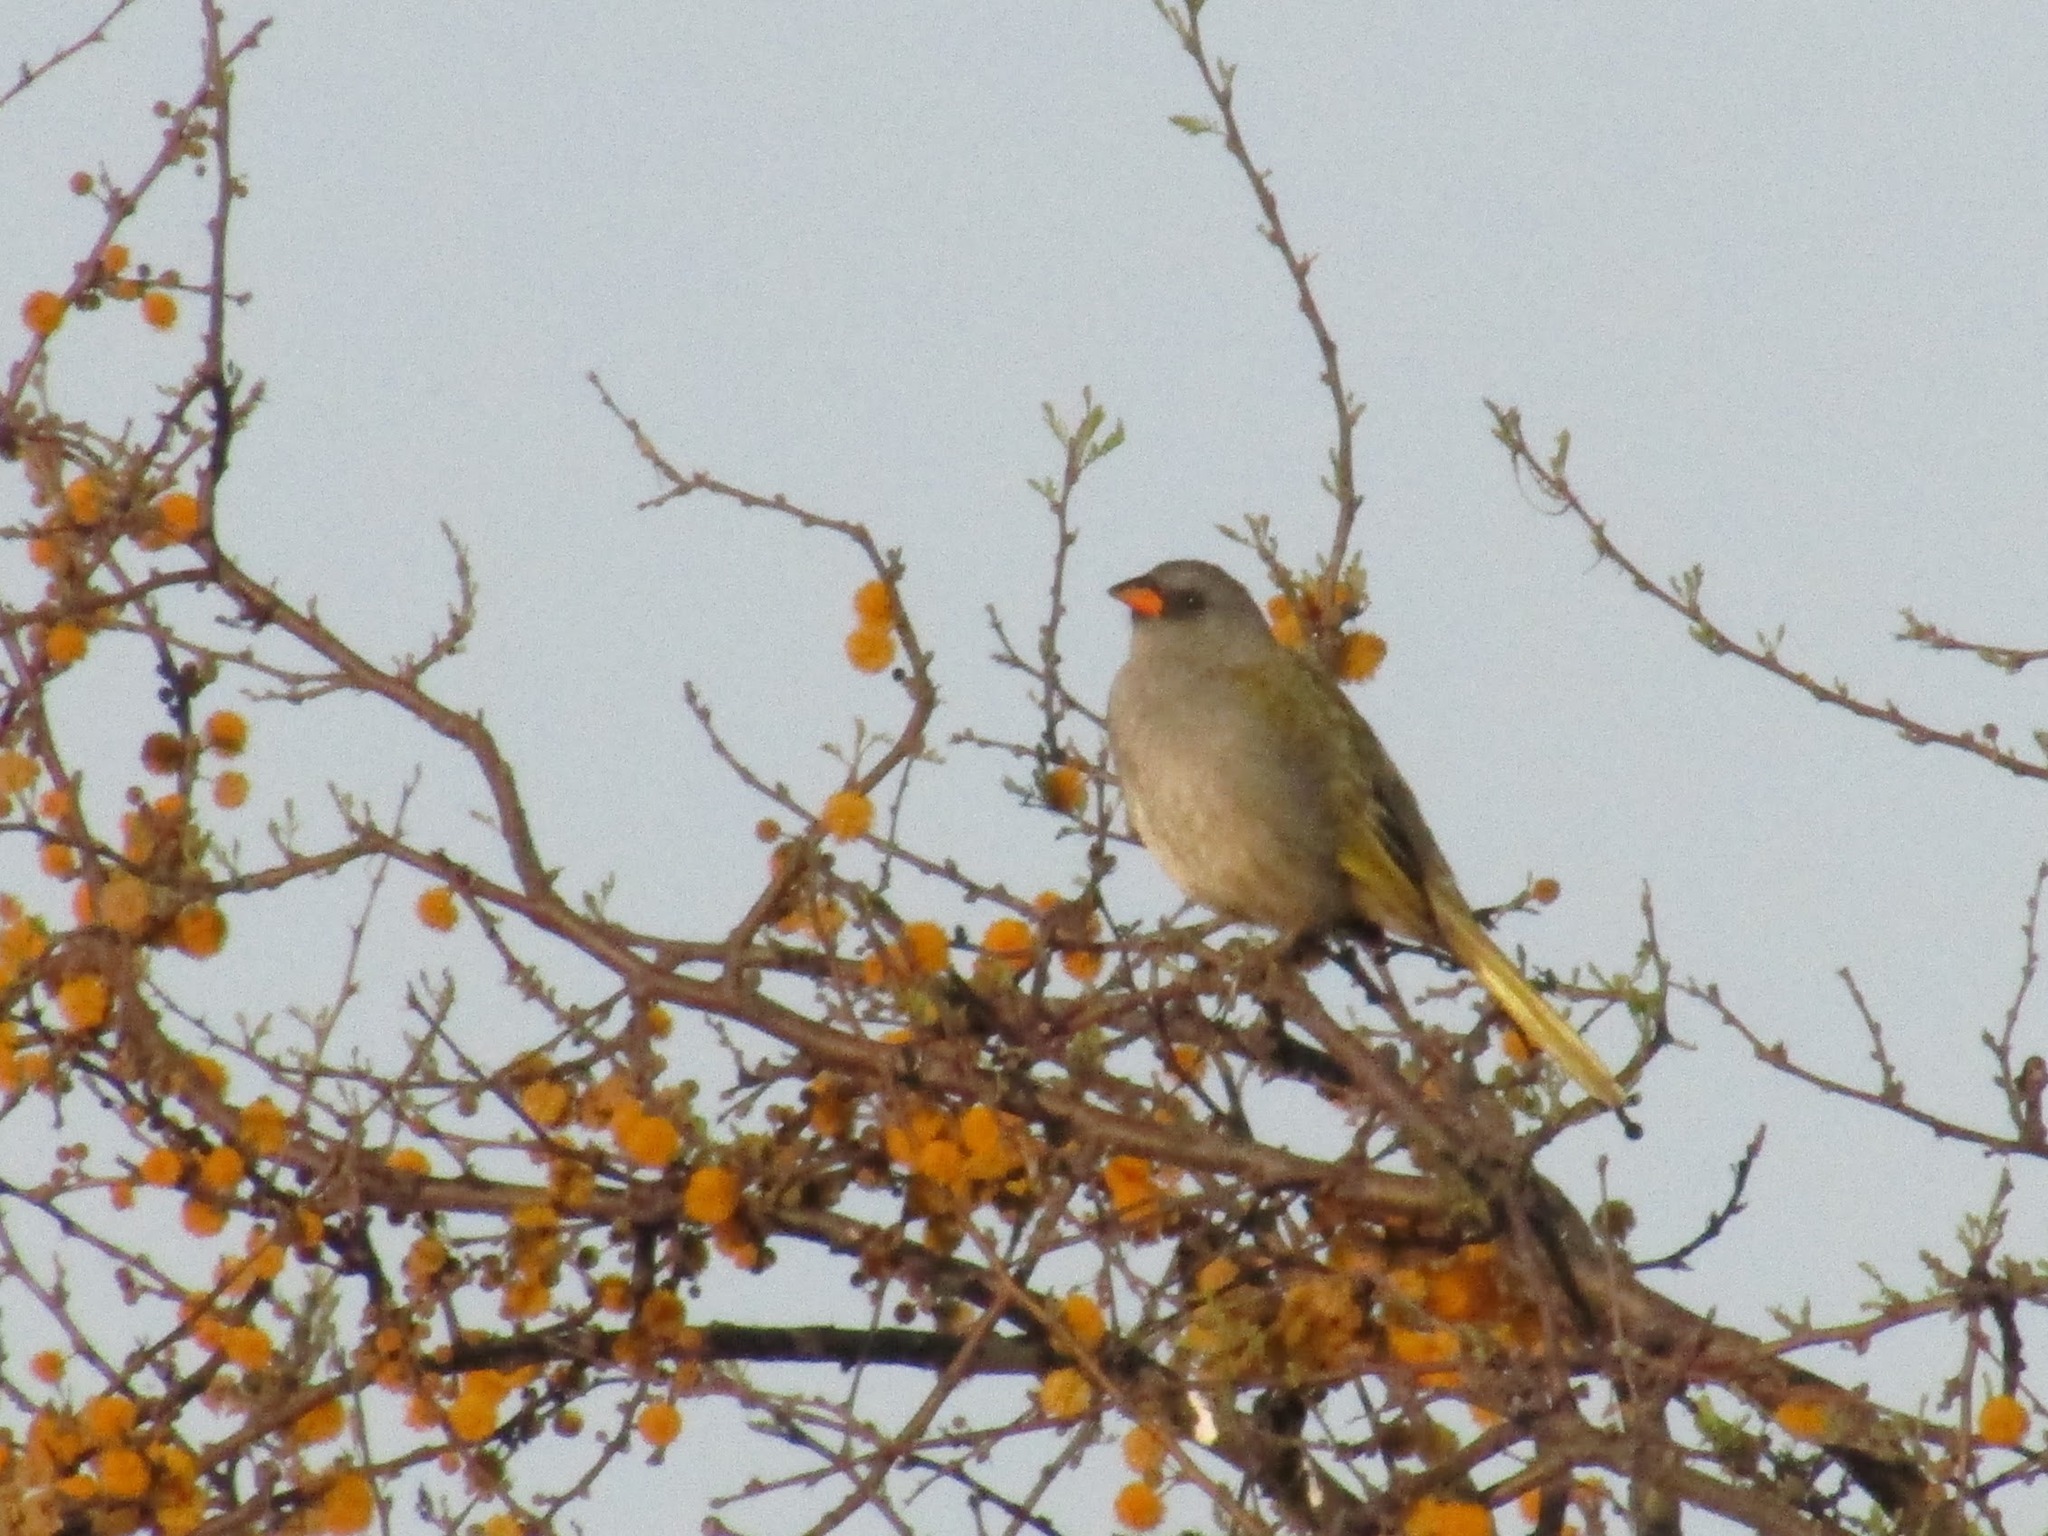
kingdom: Animalia
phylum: Chordata
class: Aves
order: Passeriformes
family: Thraupidae
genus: Embernagra
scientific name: Embernagra platensis
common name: Pampa finch
